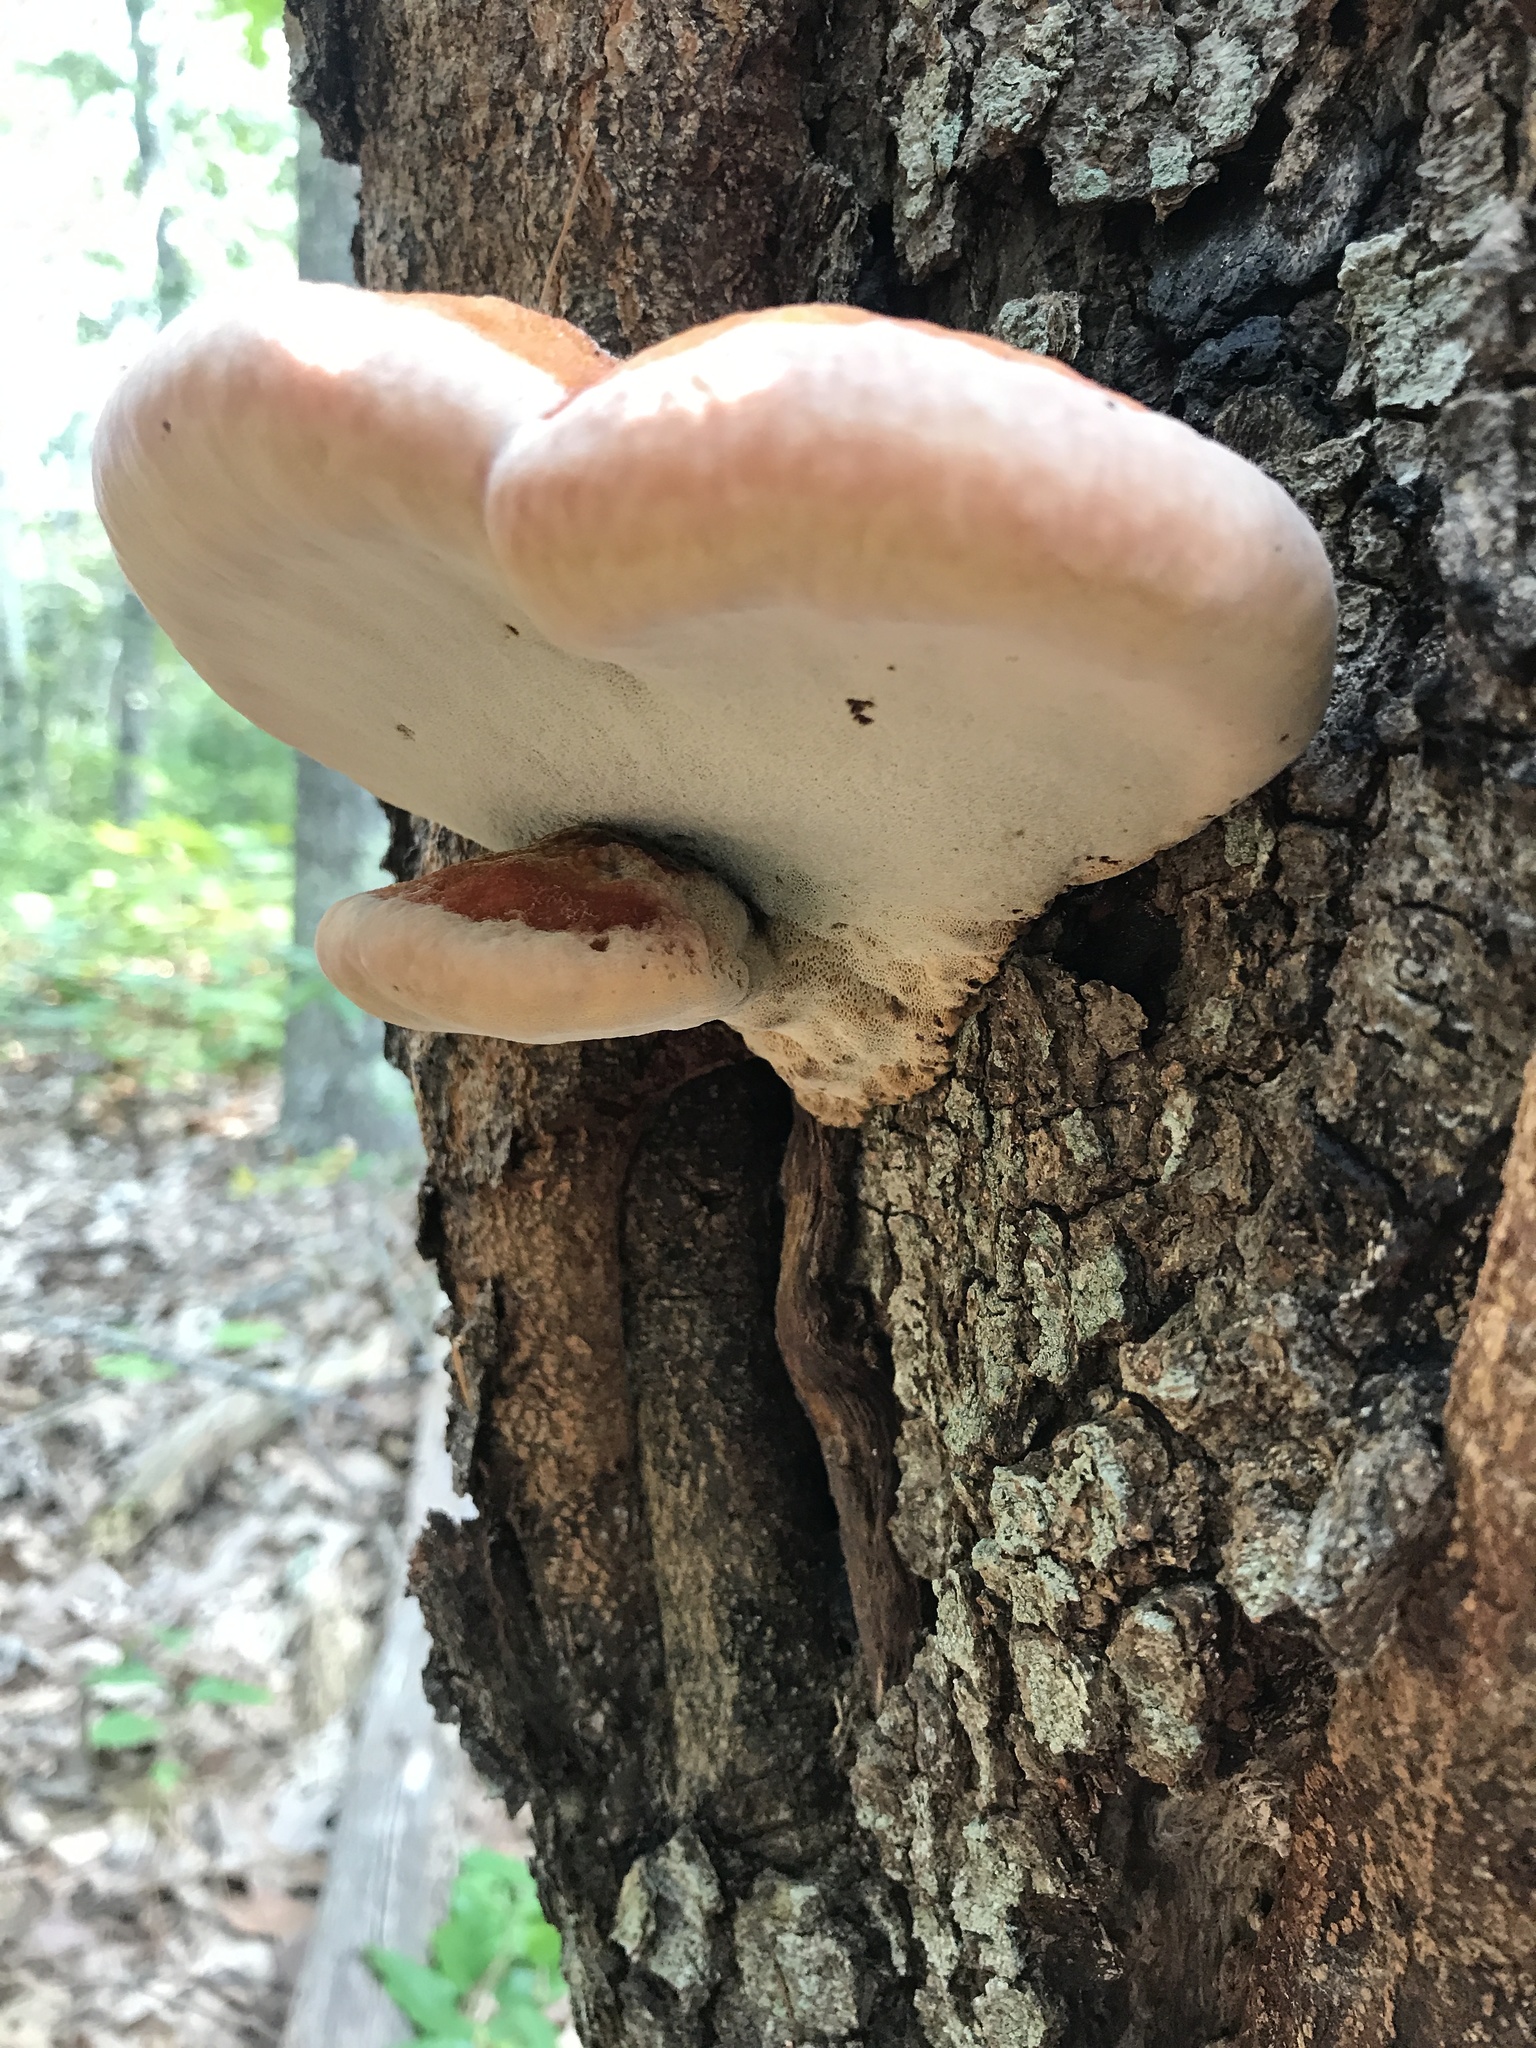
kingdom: Fungi
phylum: Basidiomycota
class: Agaricomycetes
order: Hymenochaetales
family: Hymenochaetaceae
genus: Inonotus
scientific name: Inonotus hispidus
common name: Shaggy bracket
